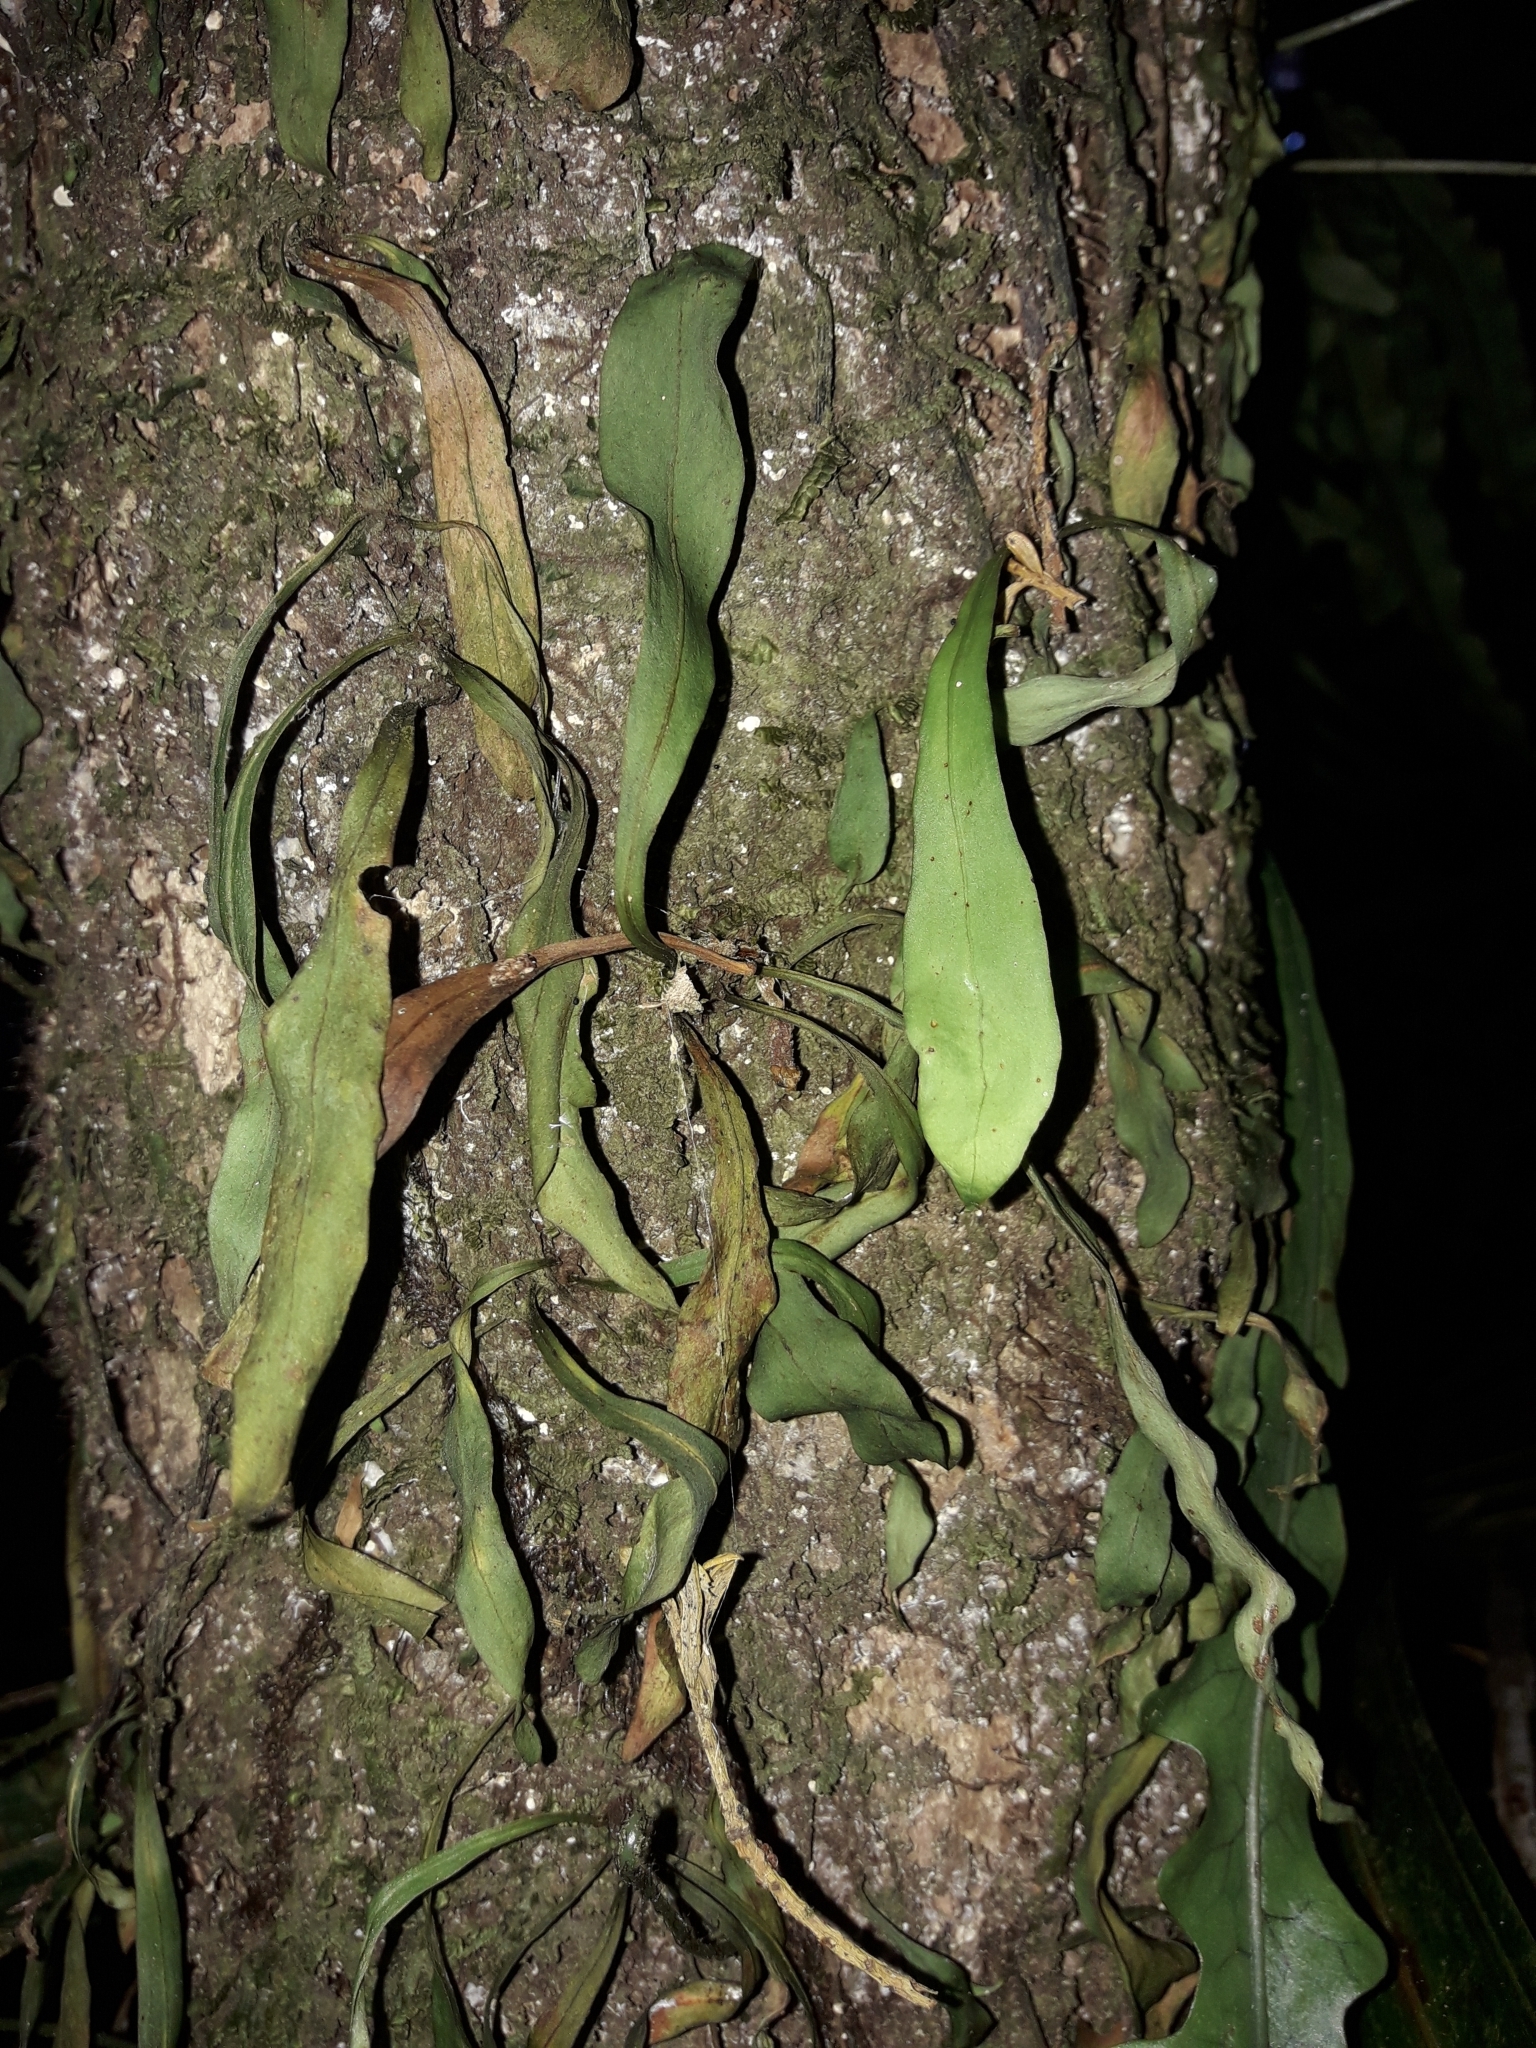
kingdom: Plantae
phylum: Tracheophyta
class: Polypodiopsida
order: Polypodiales
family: Polypodiaceae
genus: Loxogramme
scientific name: Loxogramme dictyopteris
